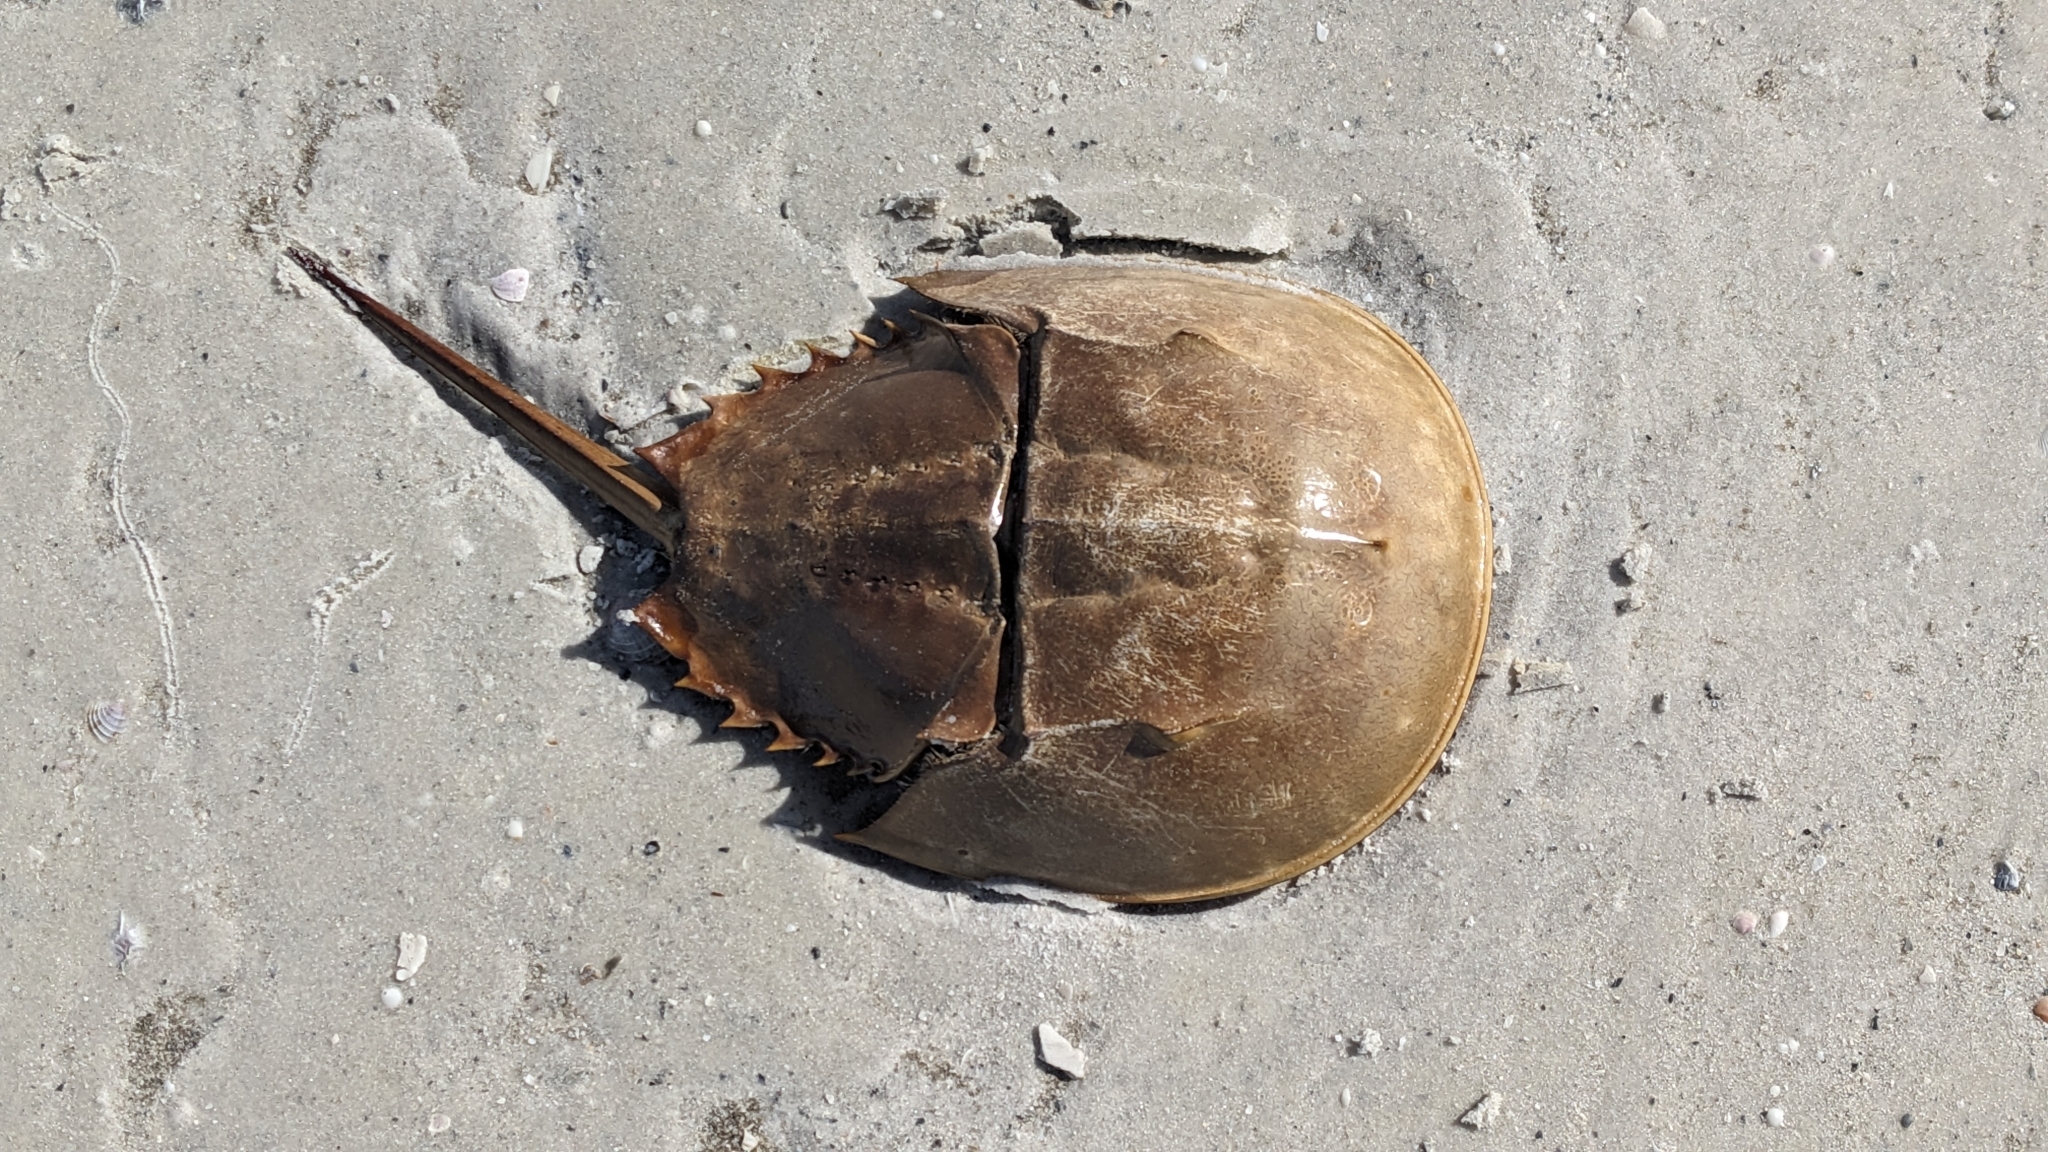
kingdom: Animalia
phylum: Arthropoda
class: Merostomata
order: Xiphosurida
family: Limulidae
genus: Limulus
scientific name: Limulus polyphemus
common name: Horseshoe crab
